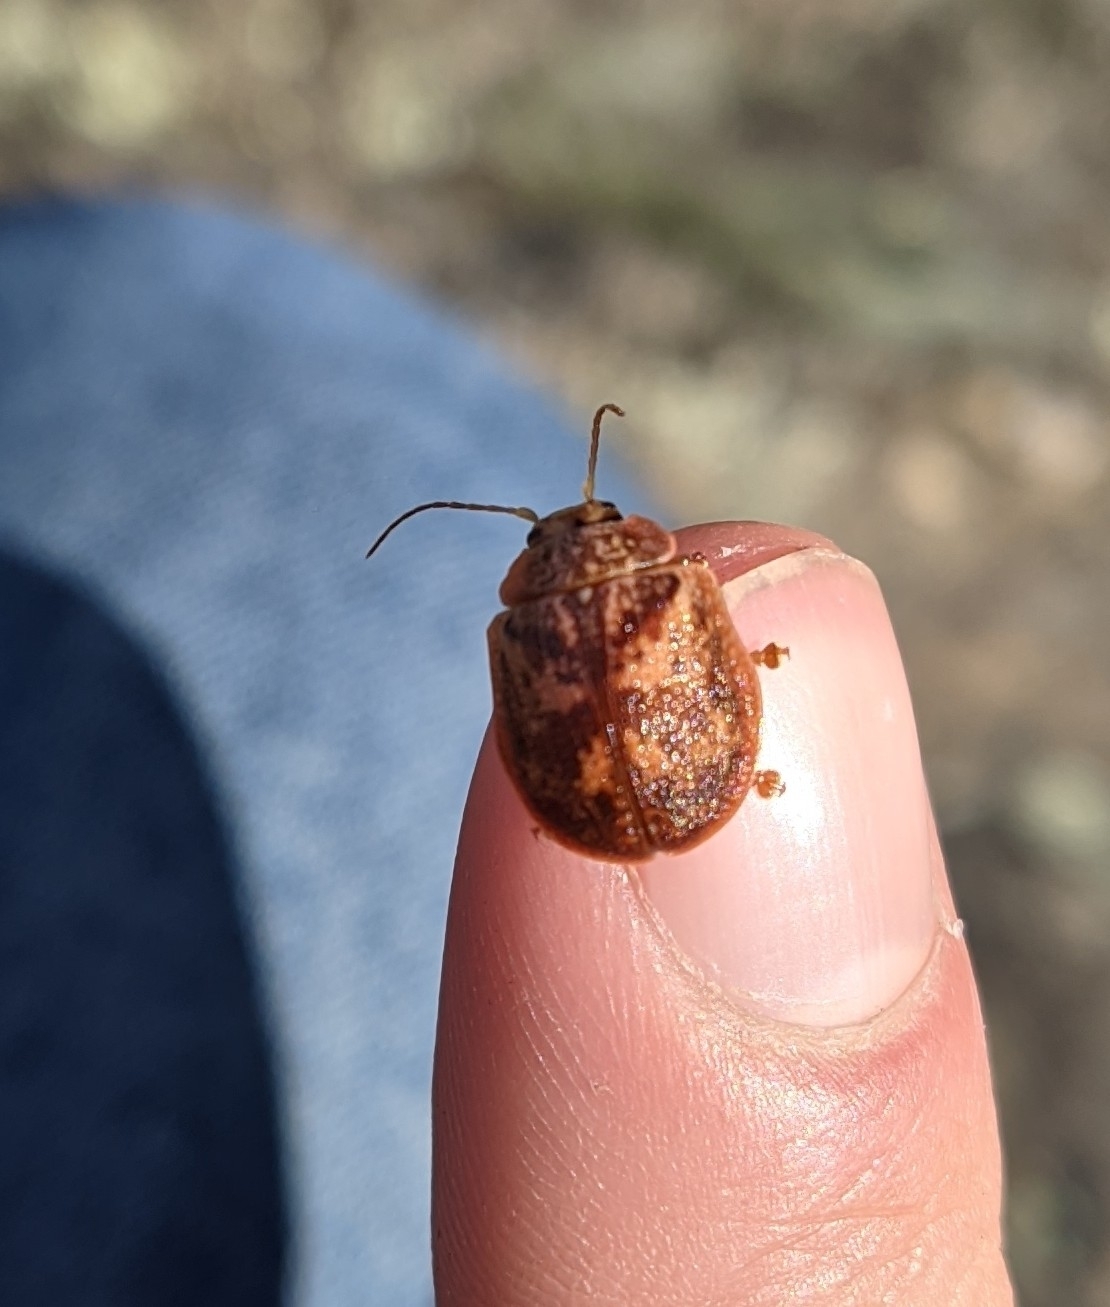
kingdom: Animalia
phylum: Arthropoda
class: Insecta
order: Coleoptera
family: Chrysomelidae
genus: Paropsis
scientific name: Paropsis charybdis
